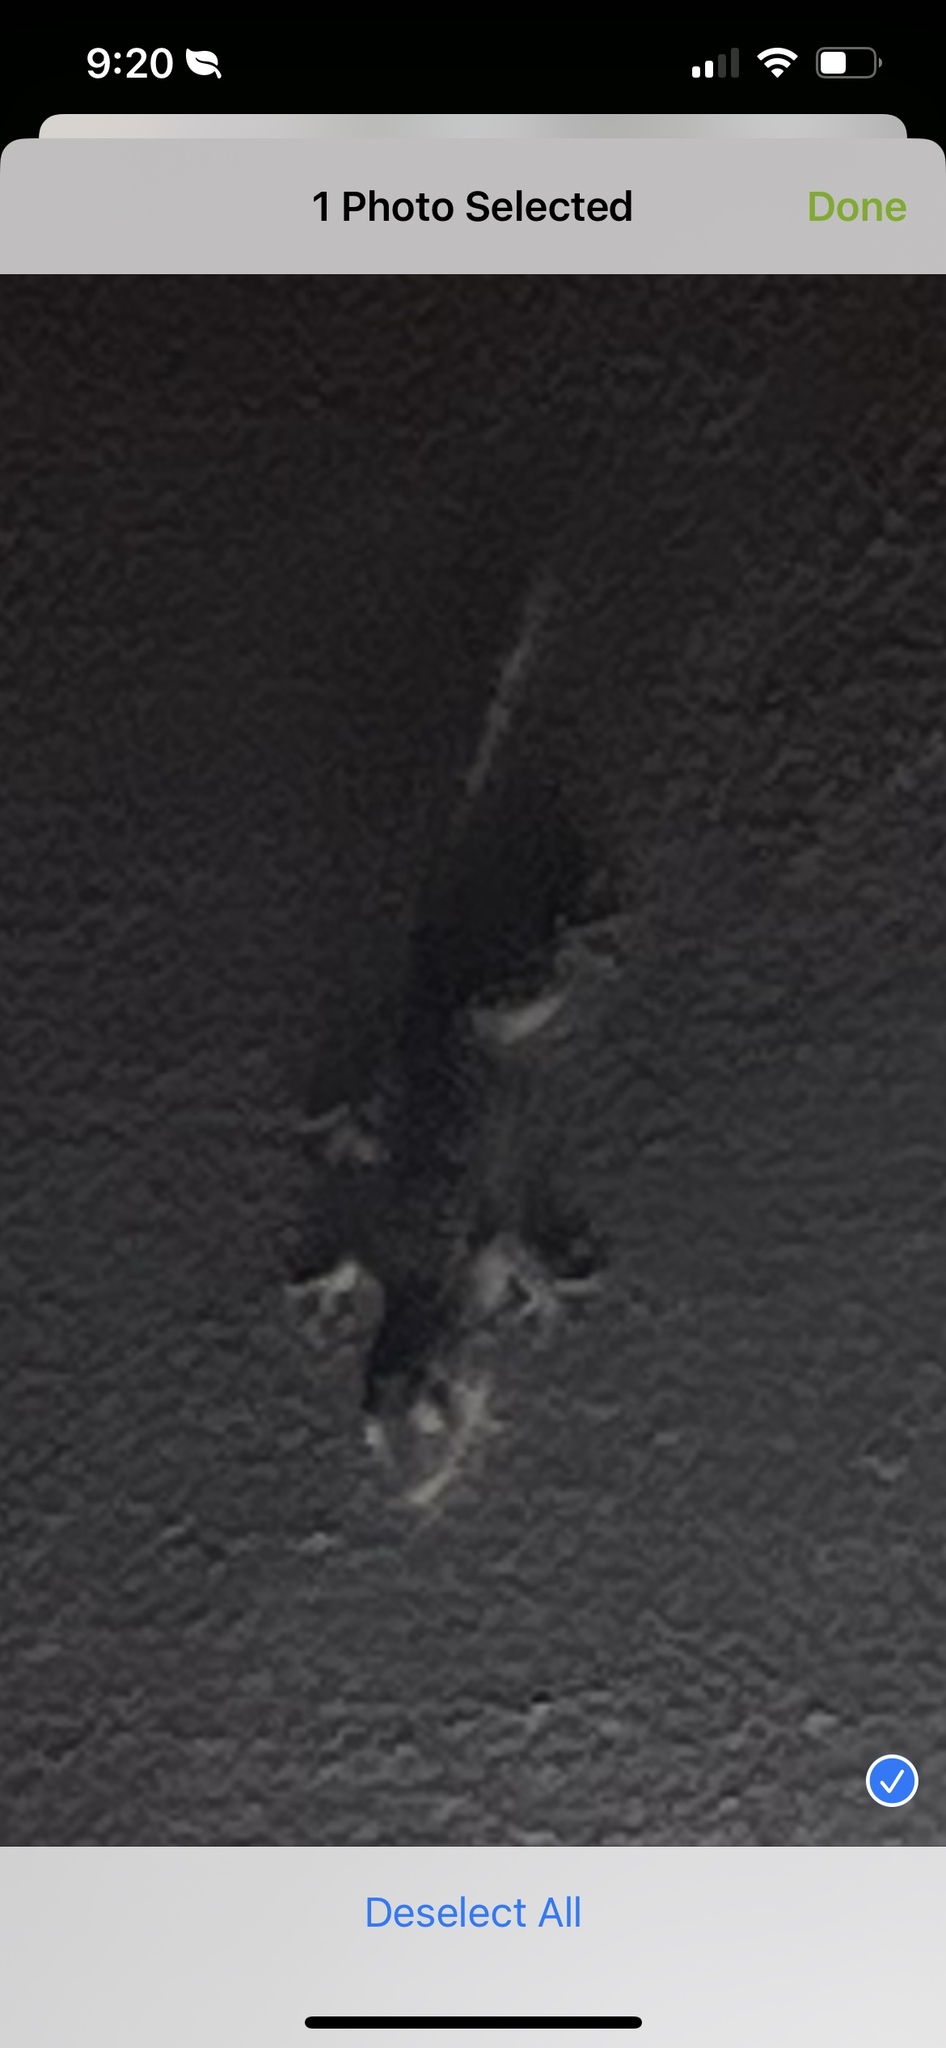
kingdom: Animalia
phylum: Chordata
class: Squamata
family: Phyllodactylidae
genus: Tarentola
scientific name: Tarentola mauritanica
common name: Moorish gecko
